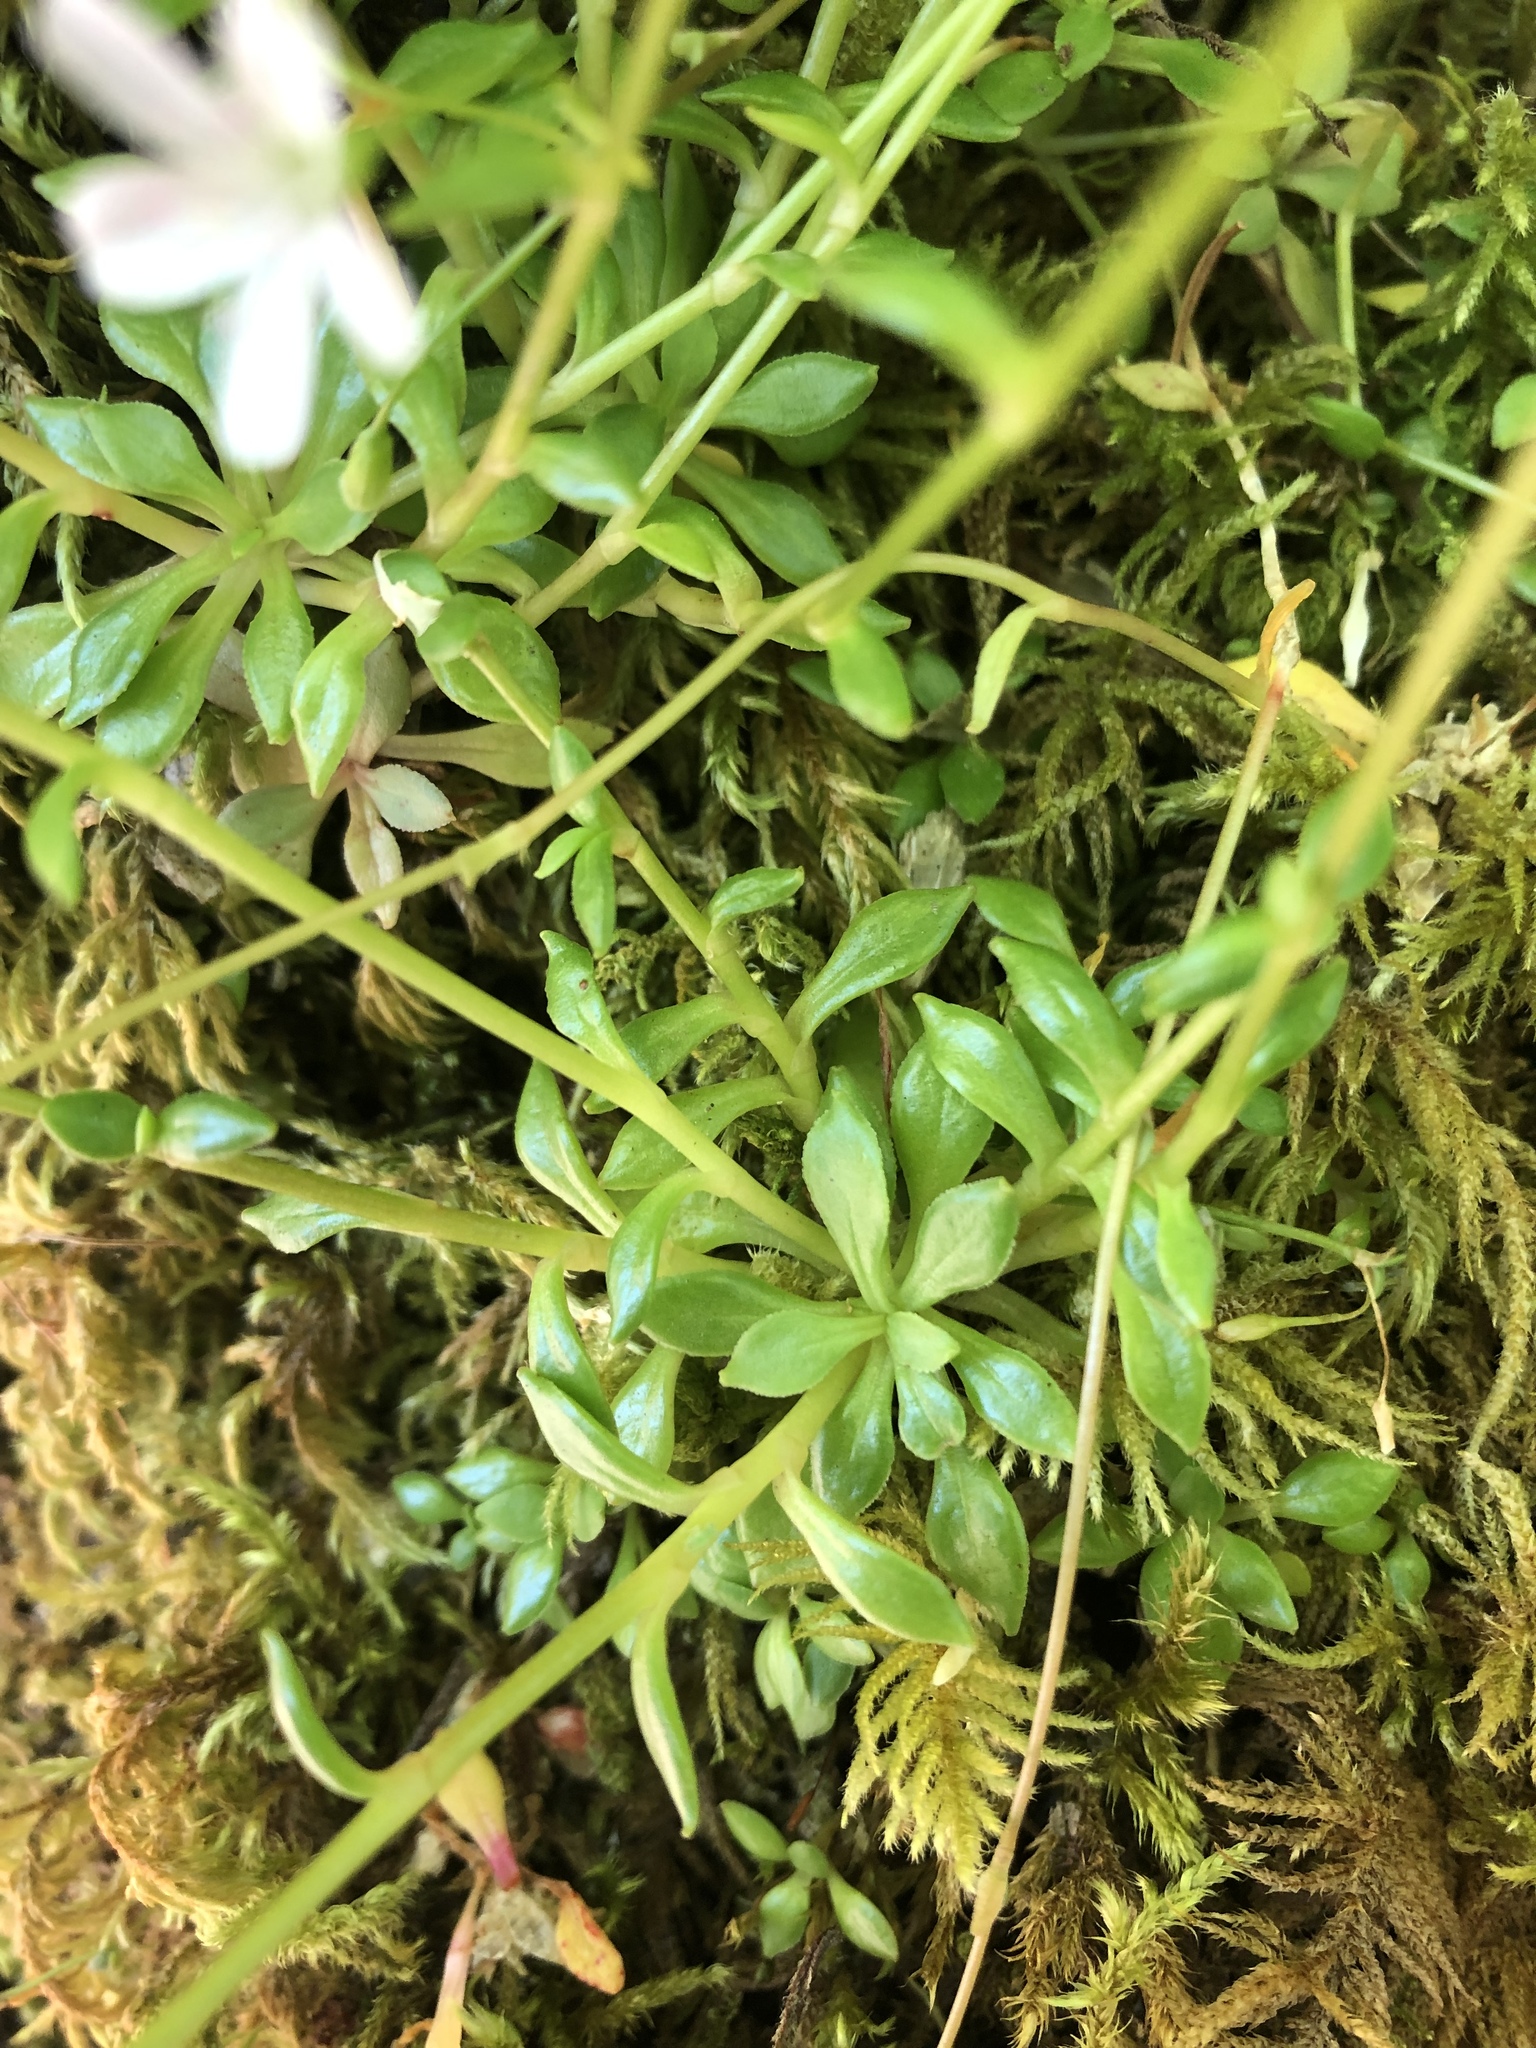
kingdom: Plantae
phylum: Tracheophyta
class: Magnoliopsida
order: Caryophyllales
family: Montiaceae
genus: Montia
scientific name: Montia parvifolia
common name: Small-leaved blinks
